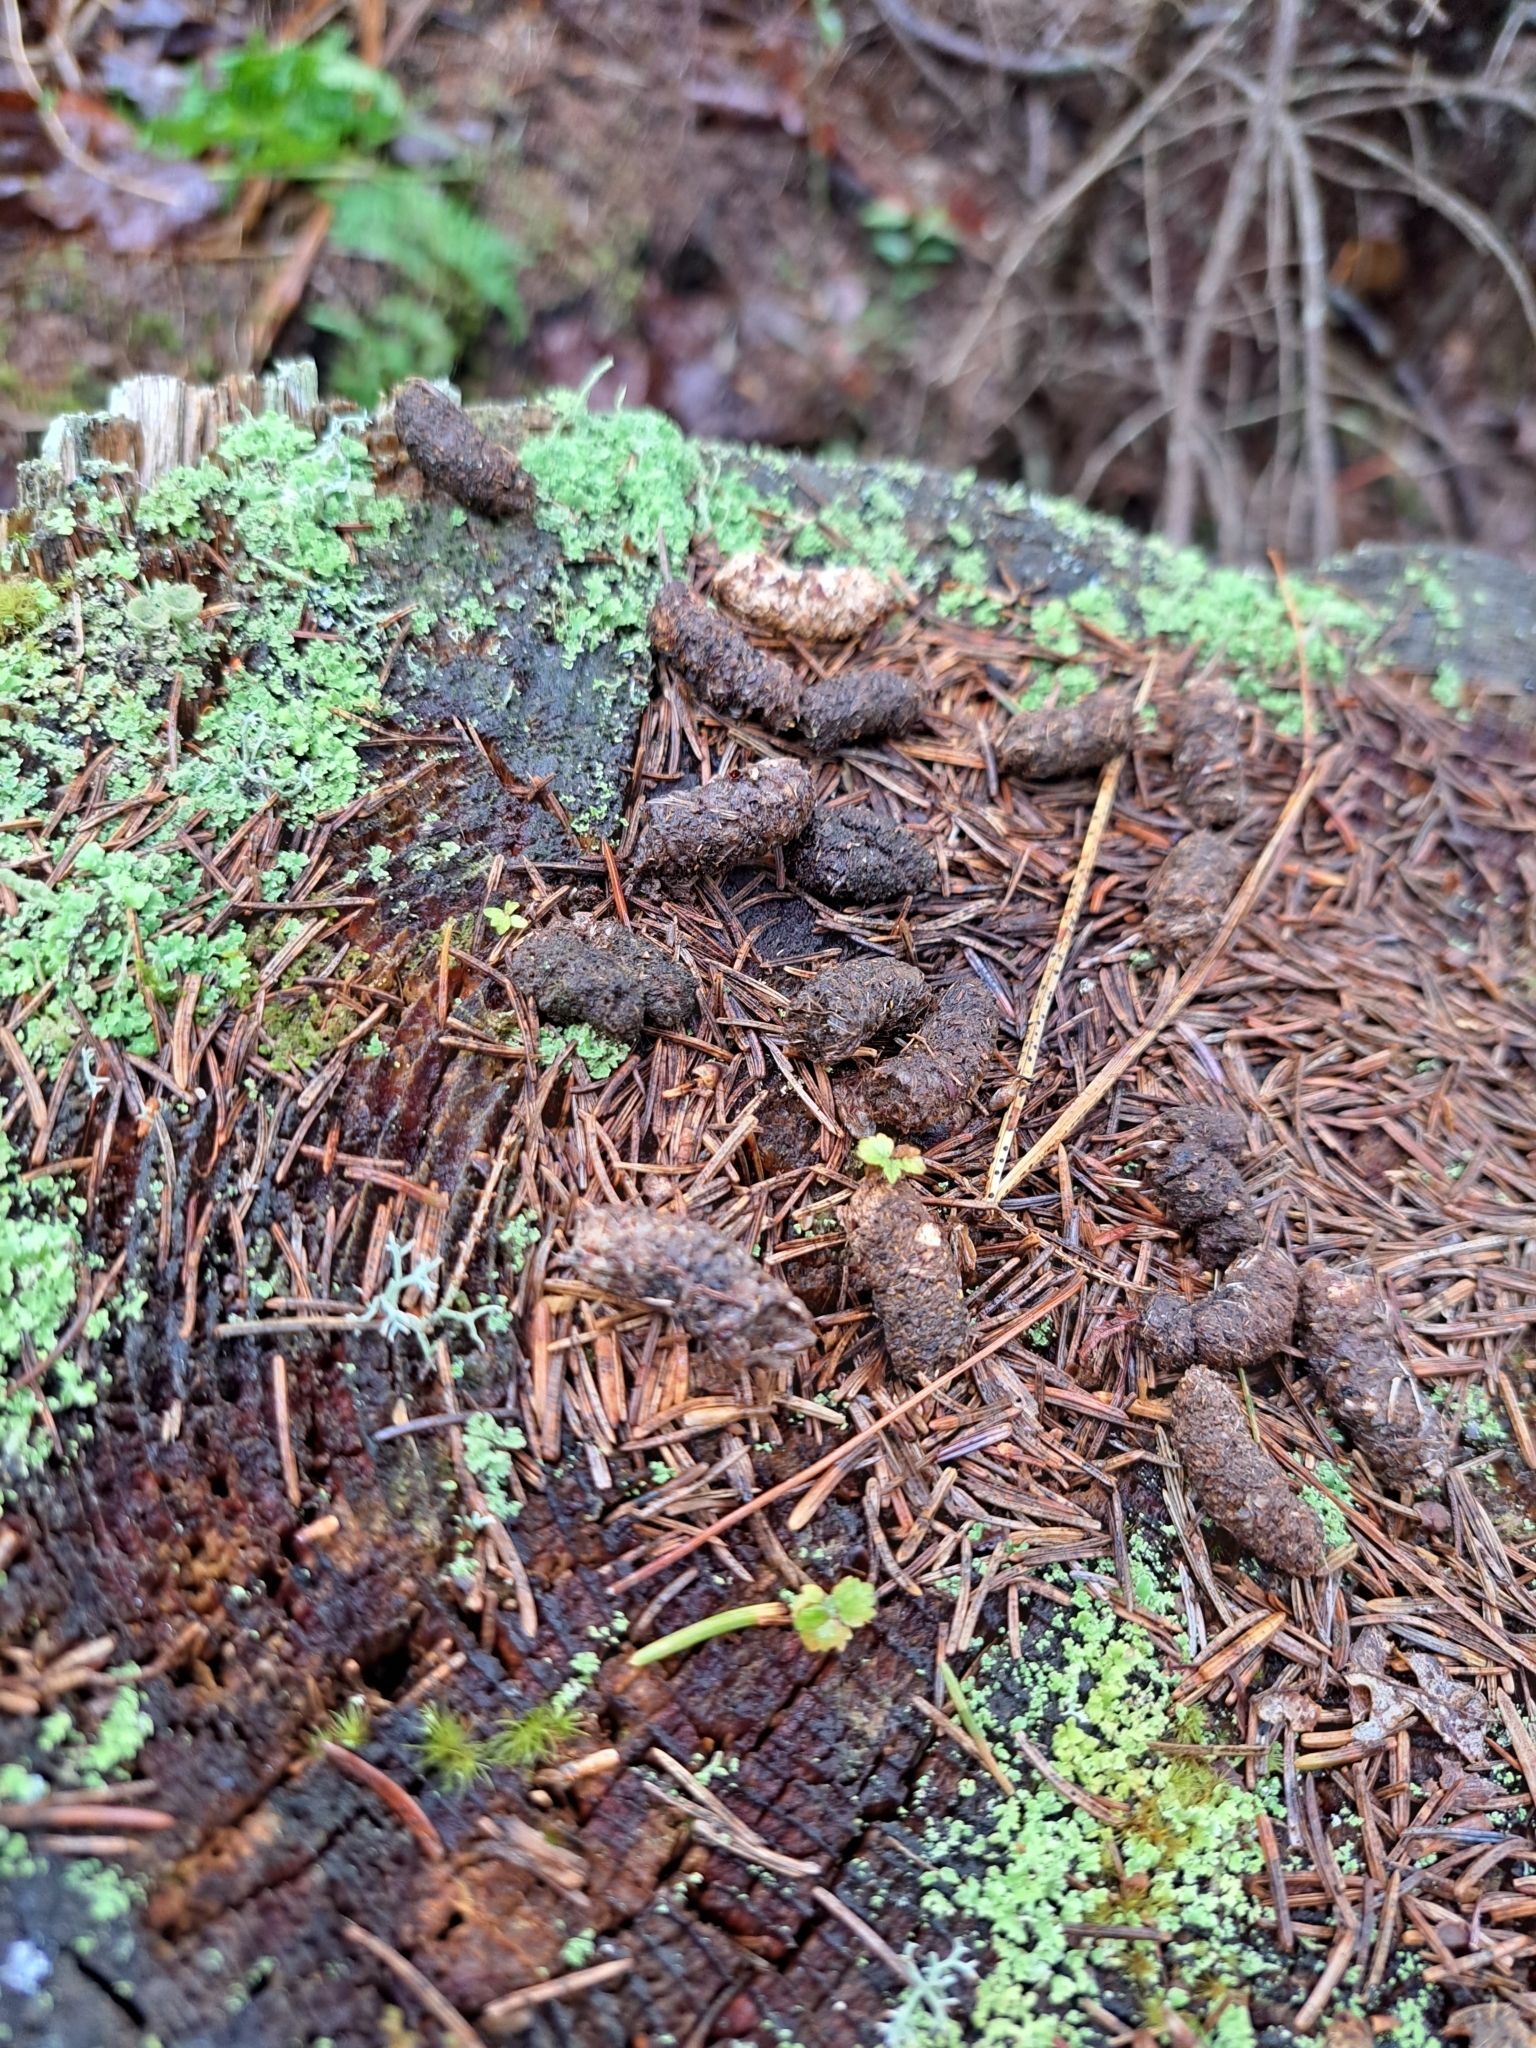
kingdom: Animalia
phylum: Chordata
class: Aves
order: Galliformes
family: Phasianidae
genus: Bonasa
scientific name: Bonasa umbellus
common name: Ruffed grouse
